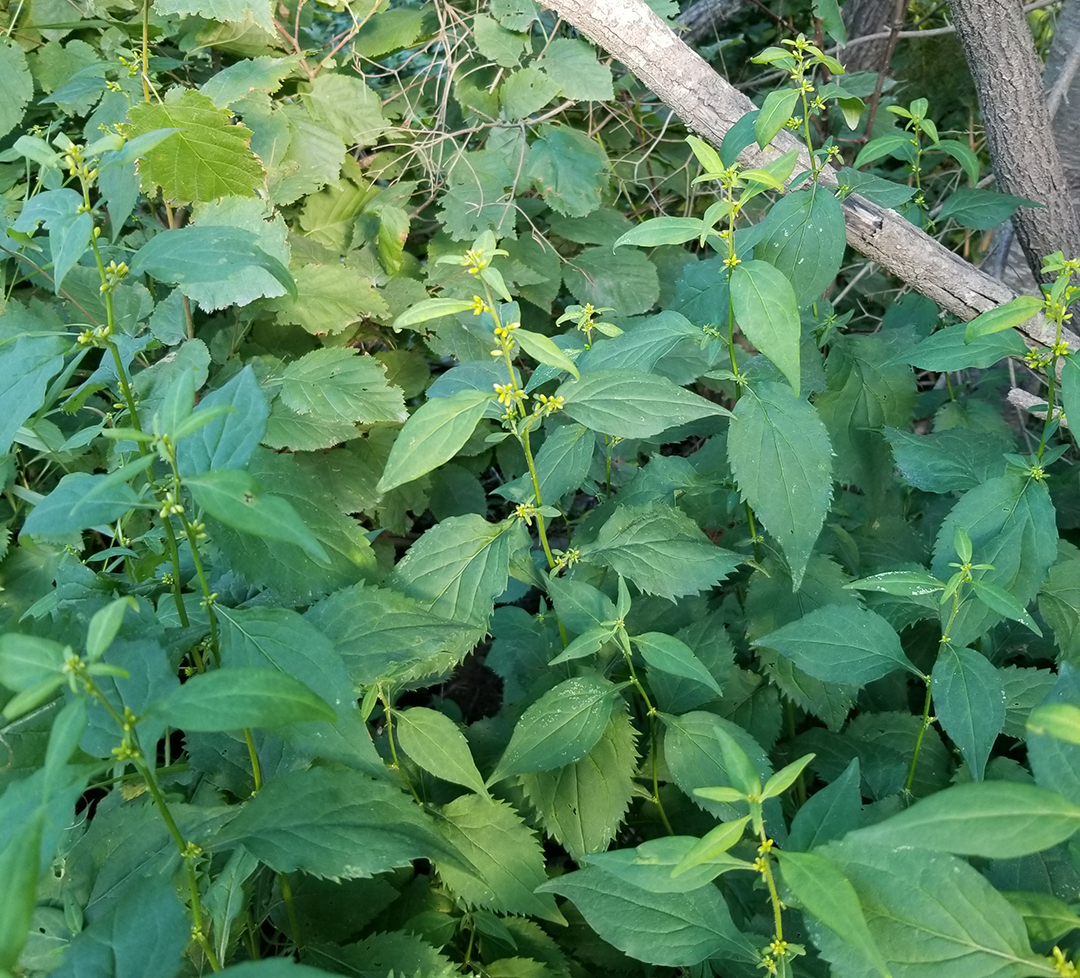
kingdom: Plantae
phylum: Tracheophyta
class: Magnoliopsida
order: Asterales
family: Asteraceae
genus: Solidago
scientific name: Solidago flexicaulis
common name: Zig-zag goldenrod
